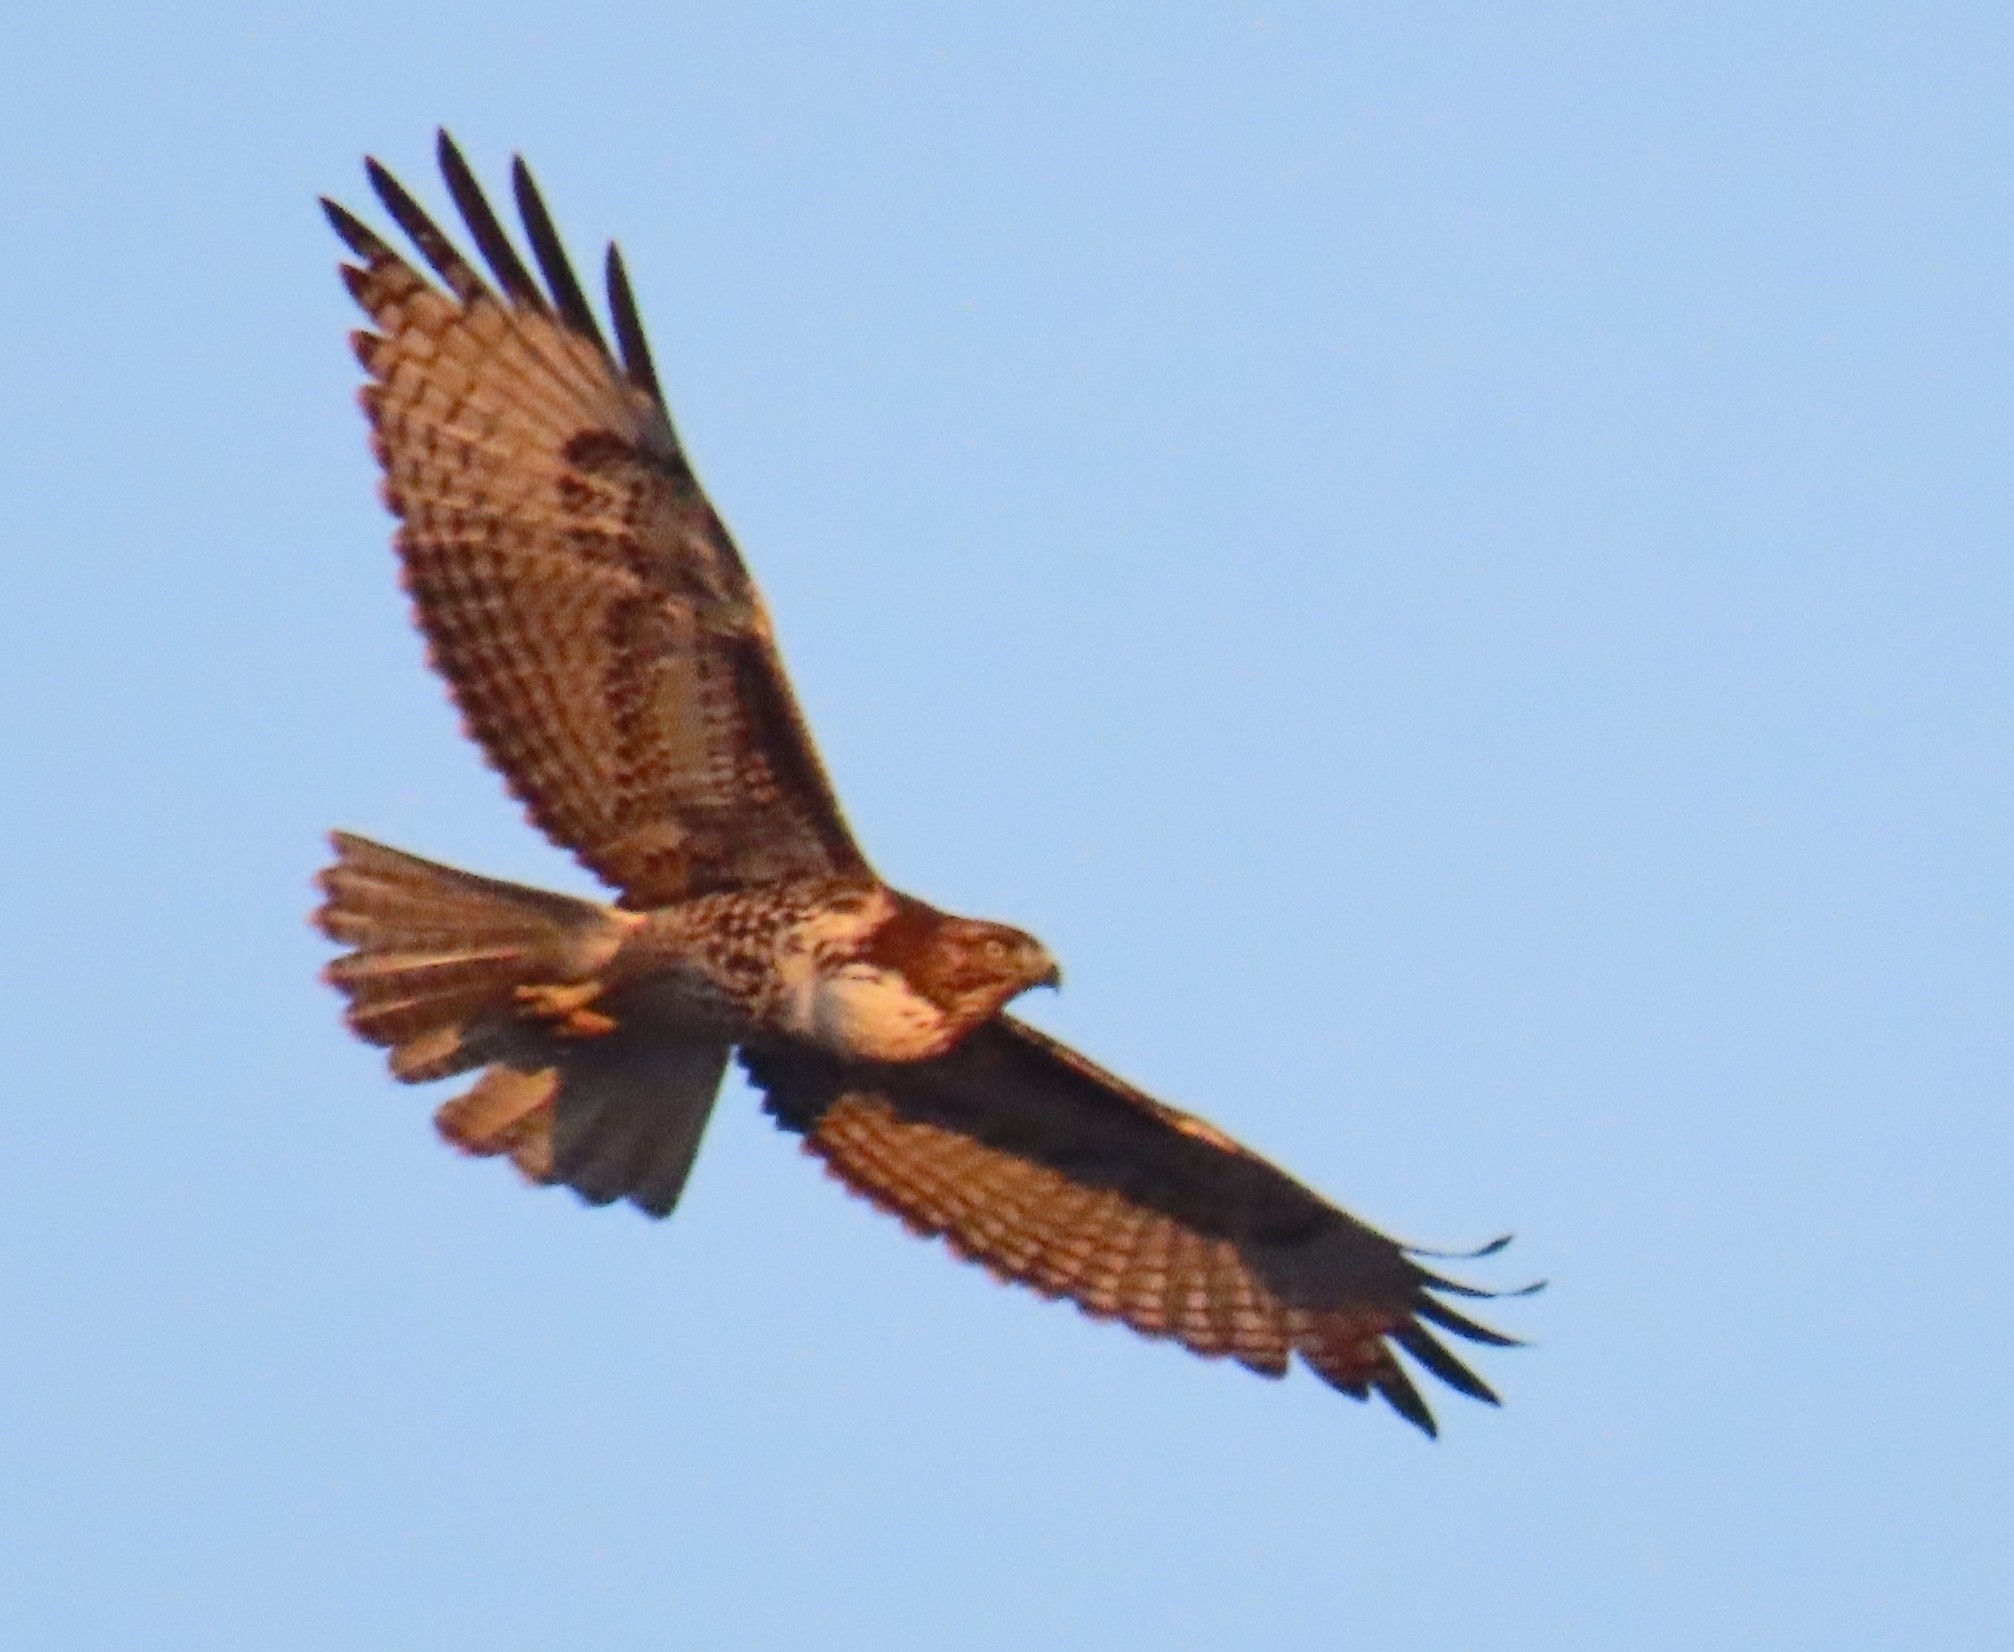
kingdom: Animalia
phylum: Chordata
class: Aves
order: Accipitriformes
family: Accipitridae
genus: Buteo
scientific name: Buteo jamaicensis
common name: Red-tailed hawk
